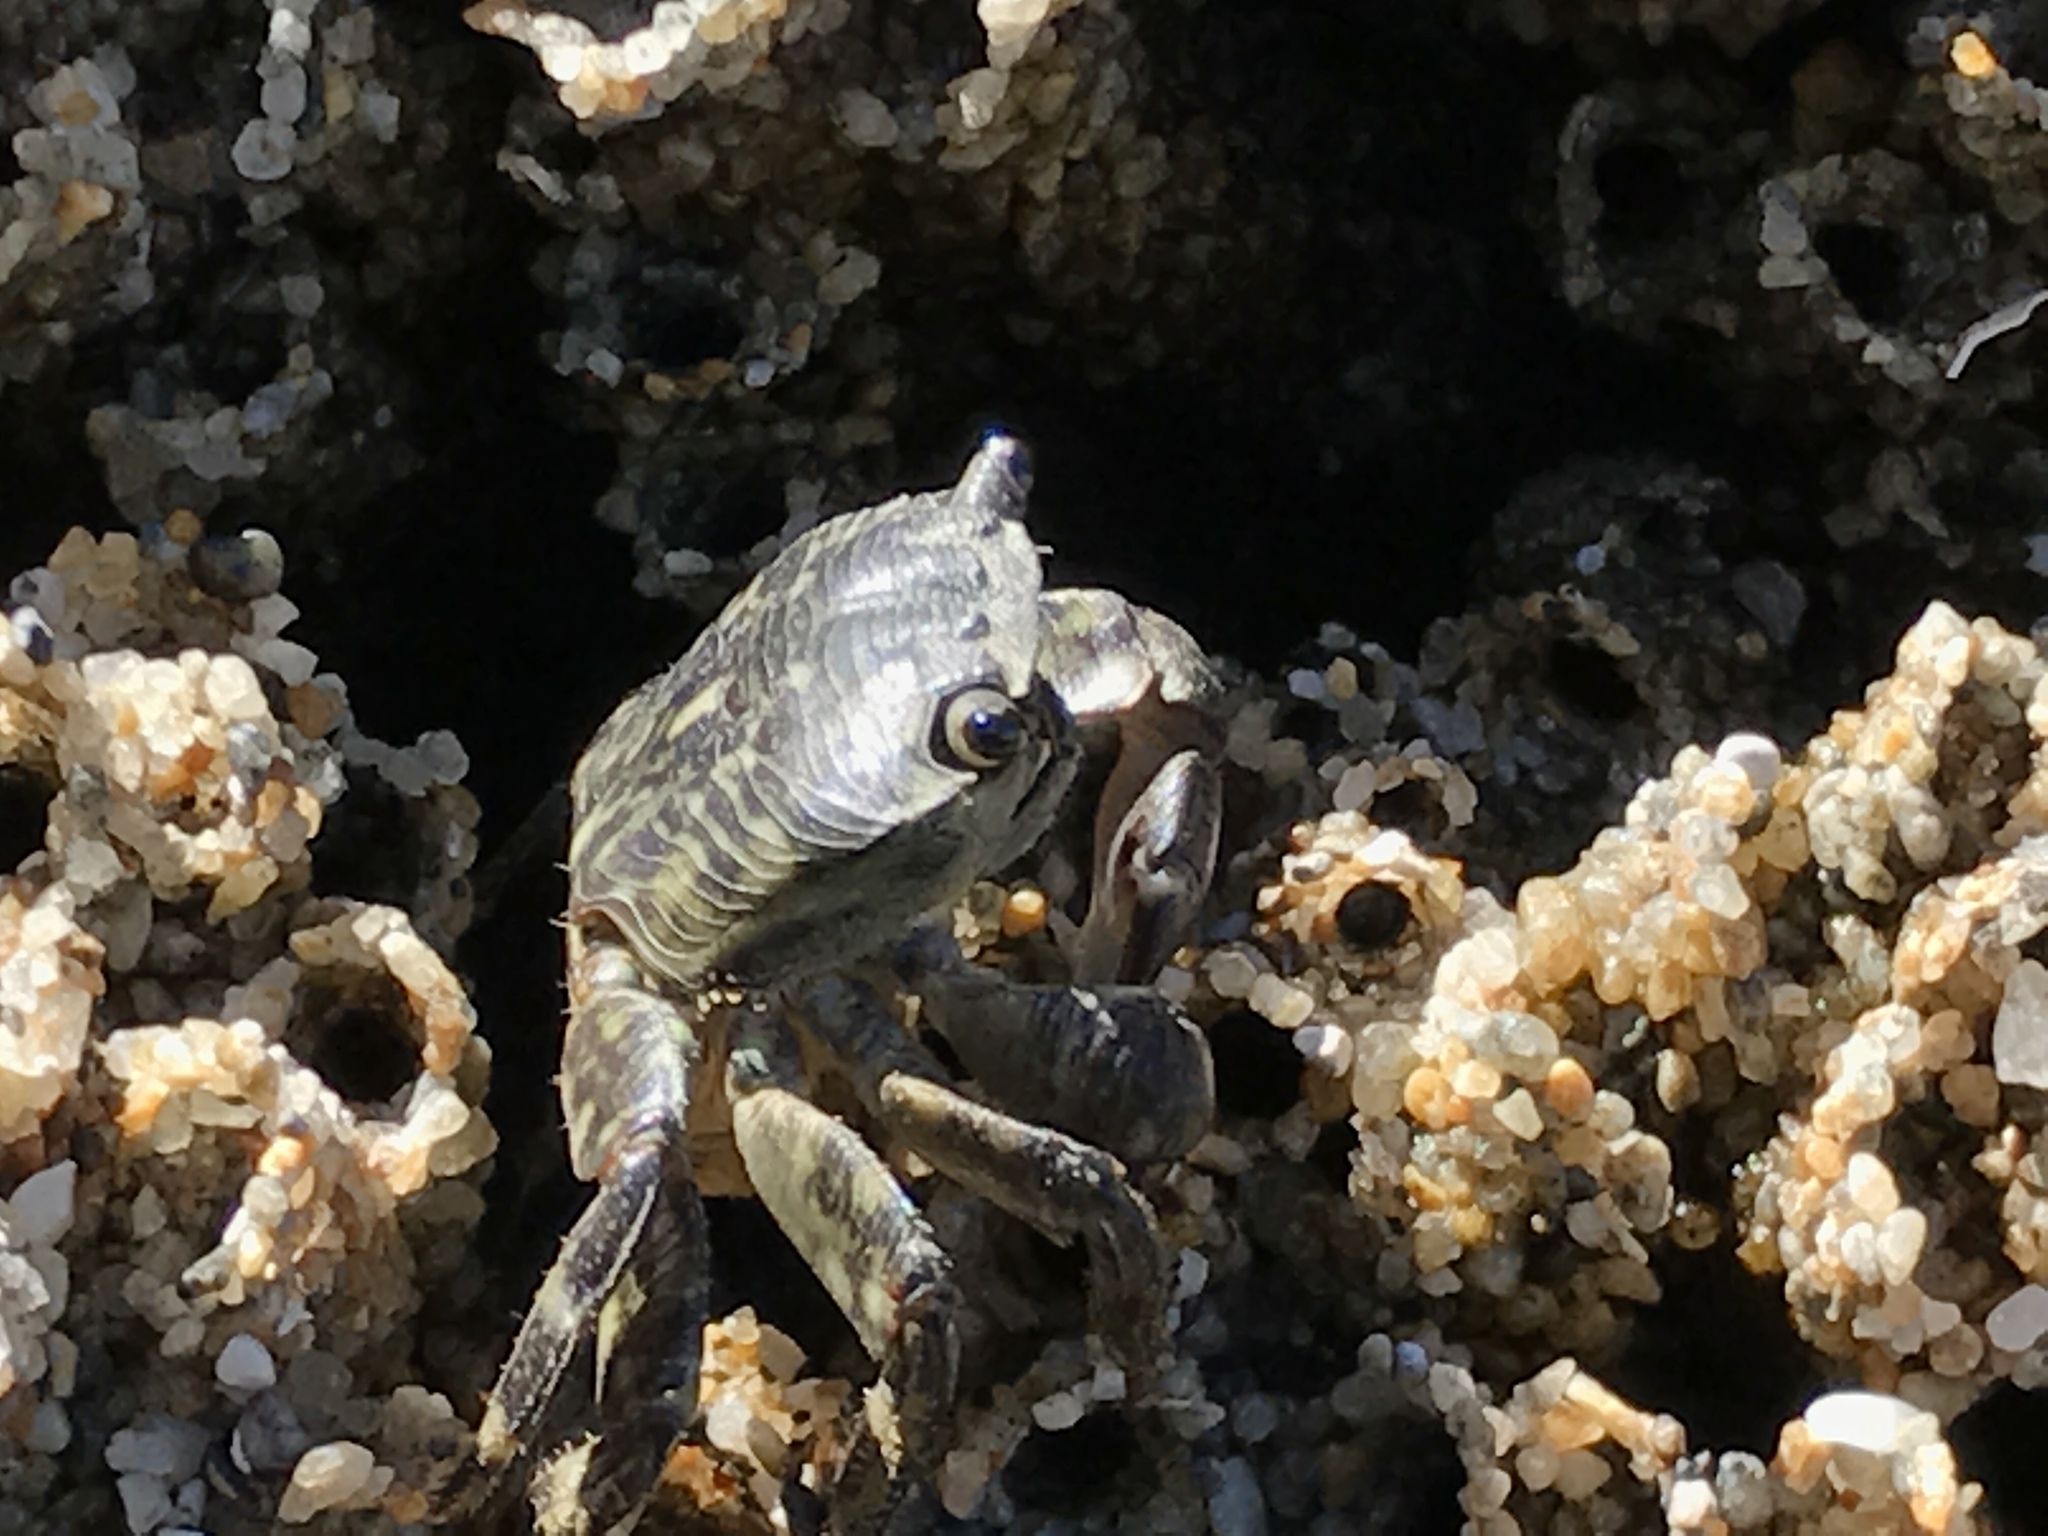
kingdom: Animalia
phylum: Arthropoda
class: Malacostraca
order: Decapoda
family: Grapsidae
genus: Pachygrapsus
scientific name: Pachygrapsus crassipes
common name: Striped shore crab
